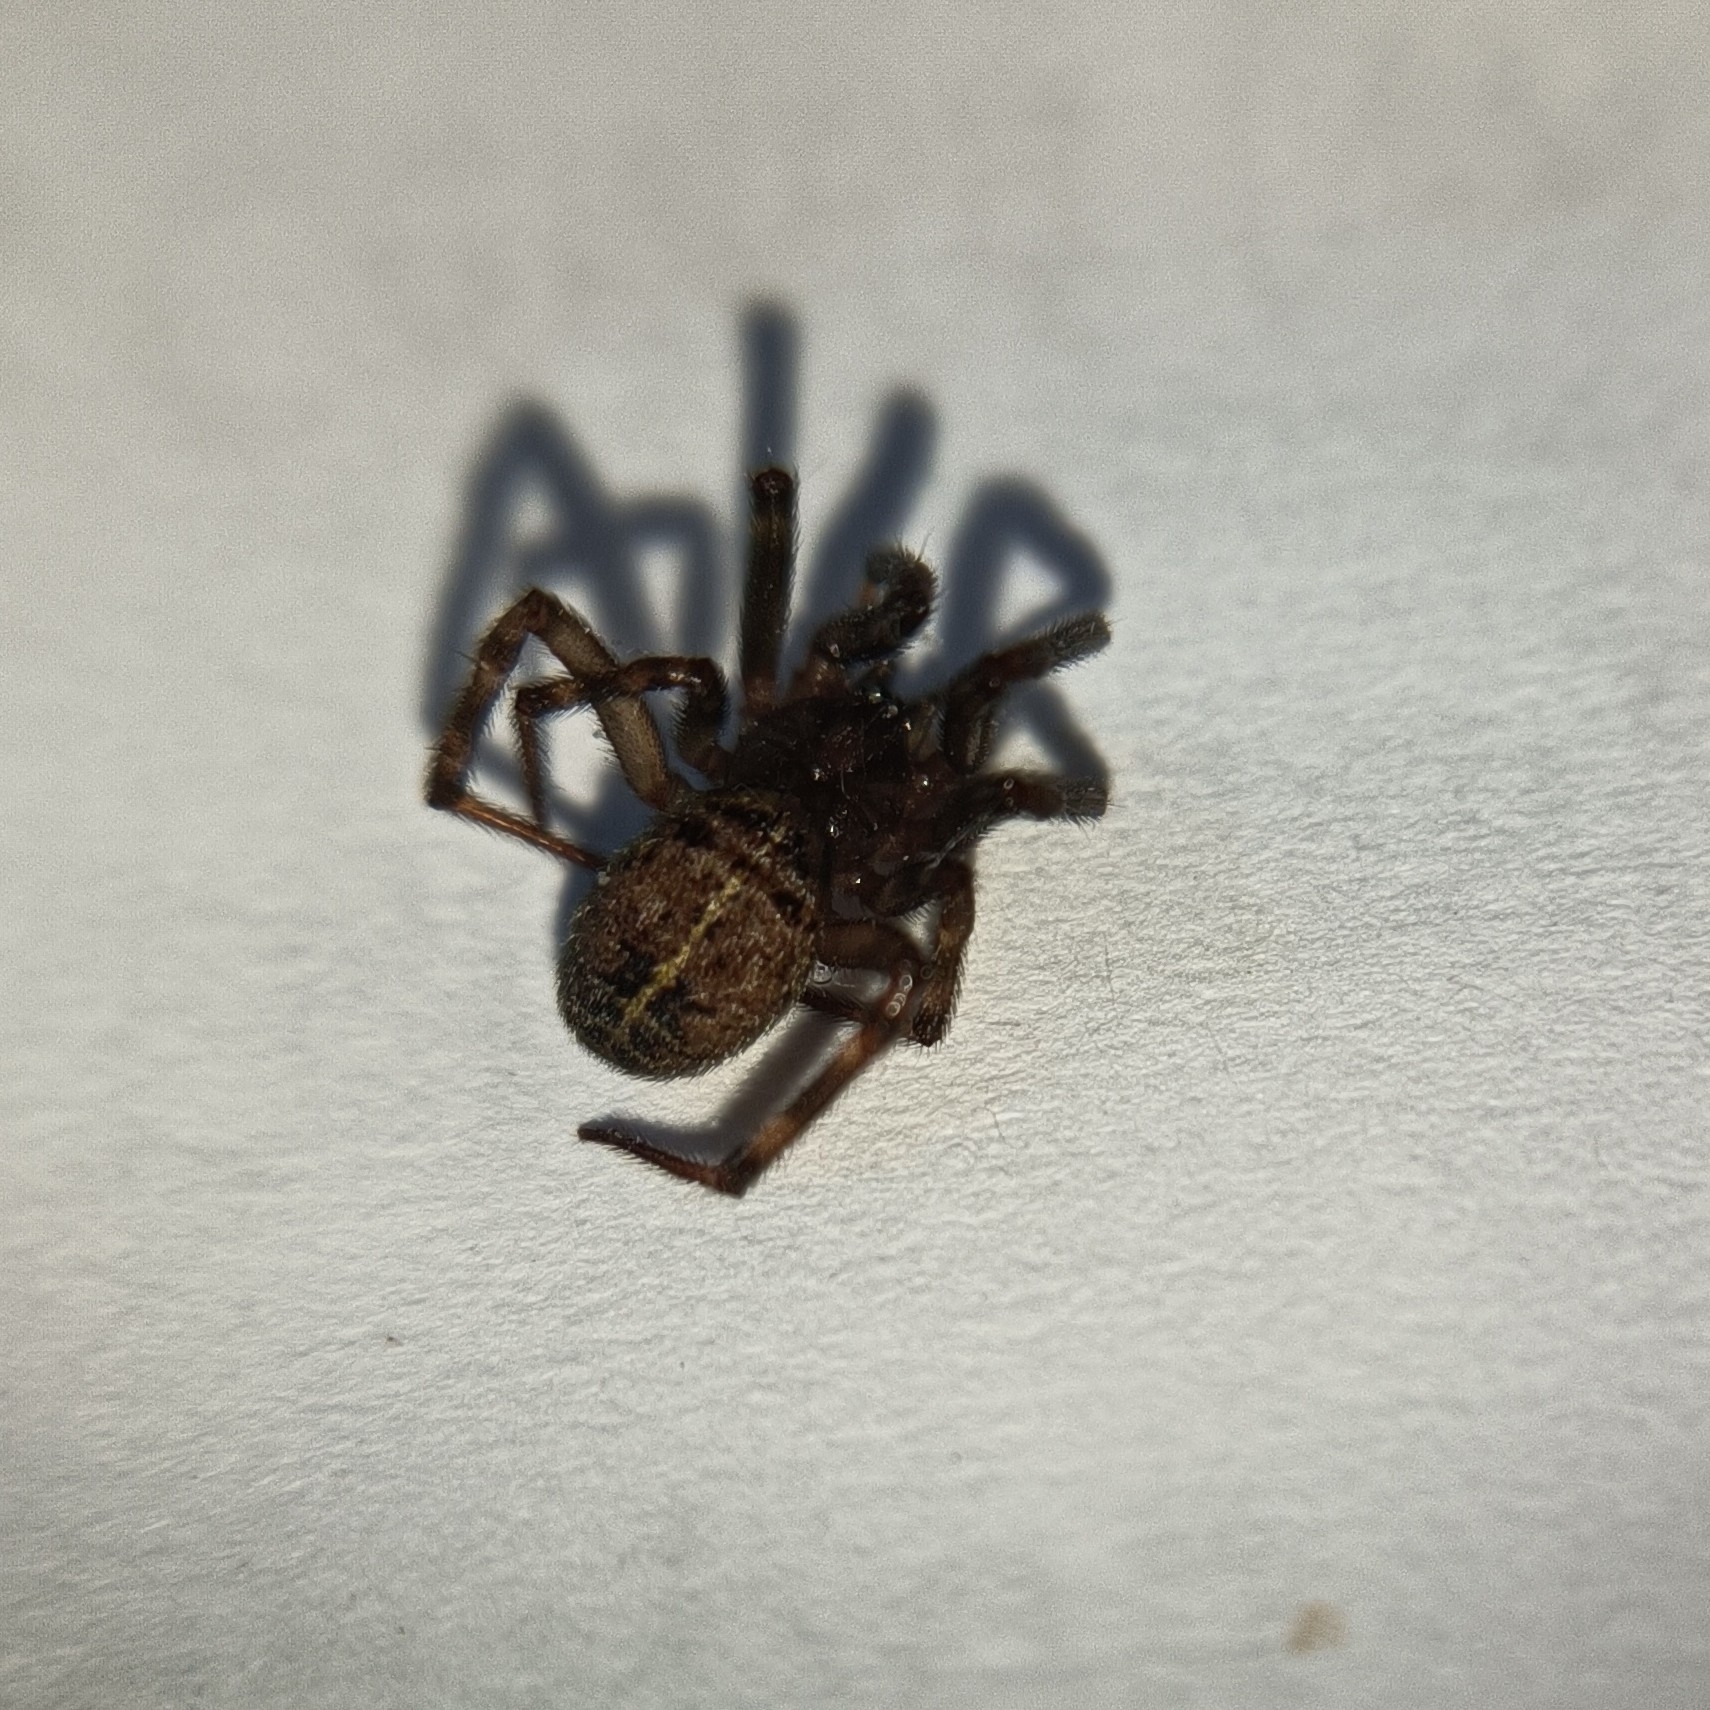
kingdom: Animalia
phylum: Arthropoda
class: Arachnida
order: Araneae
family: Theridiidae
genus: Steatoda
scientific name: Steatoda castanea
